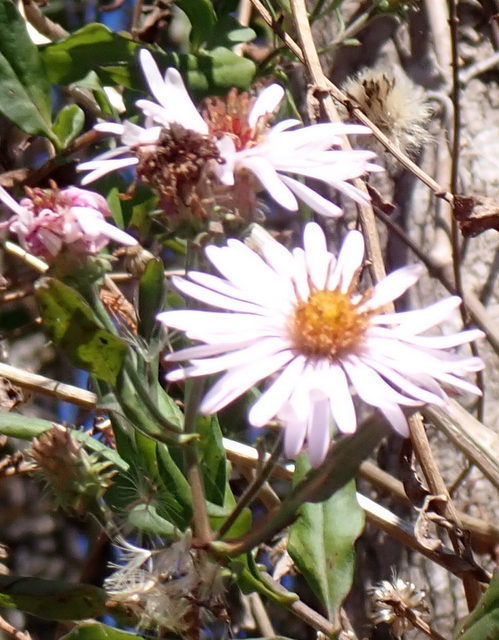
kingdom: Plantae
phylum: Tracheophyta
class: Magnoliopsida
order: Asterales
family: Asteraceae
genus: Ampelaster
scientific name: Ampelaster carolinianus
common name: Climbing aster
